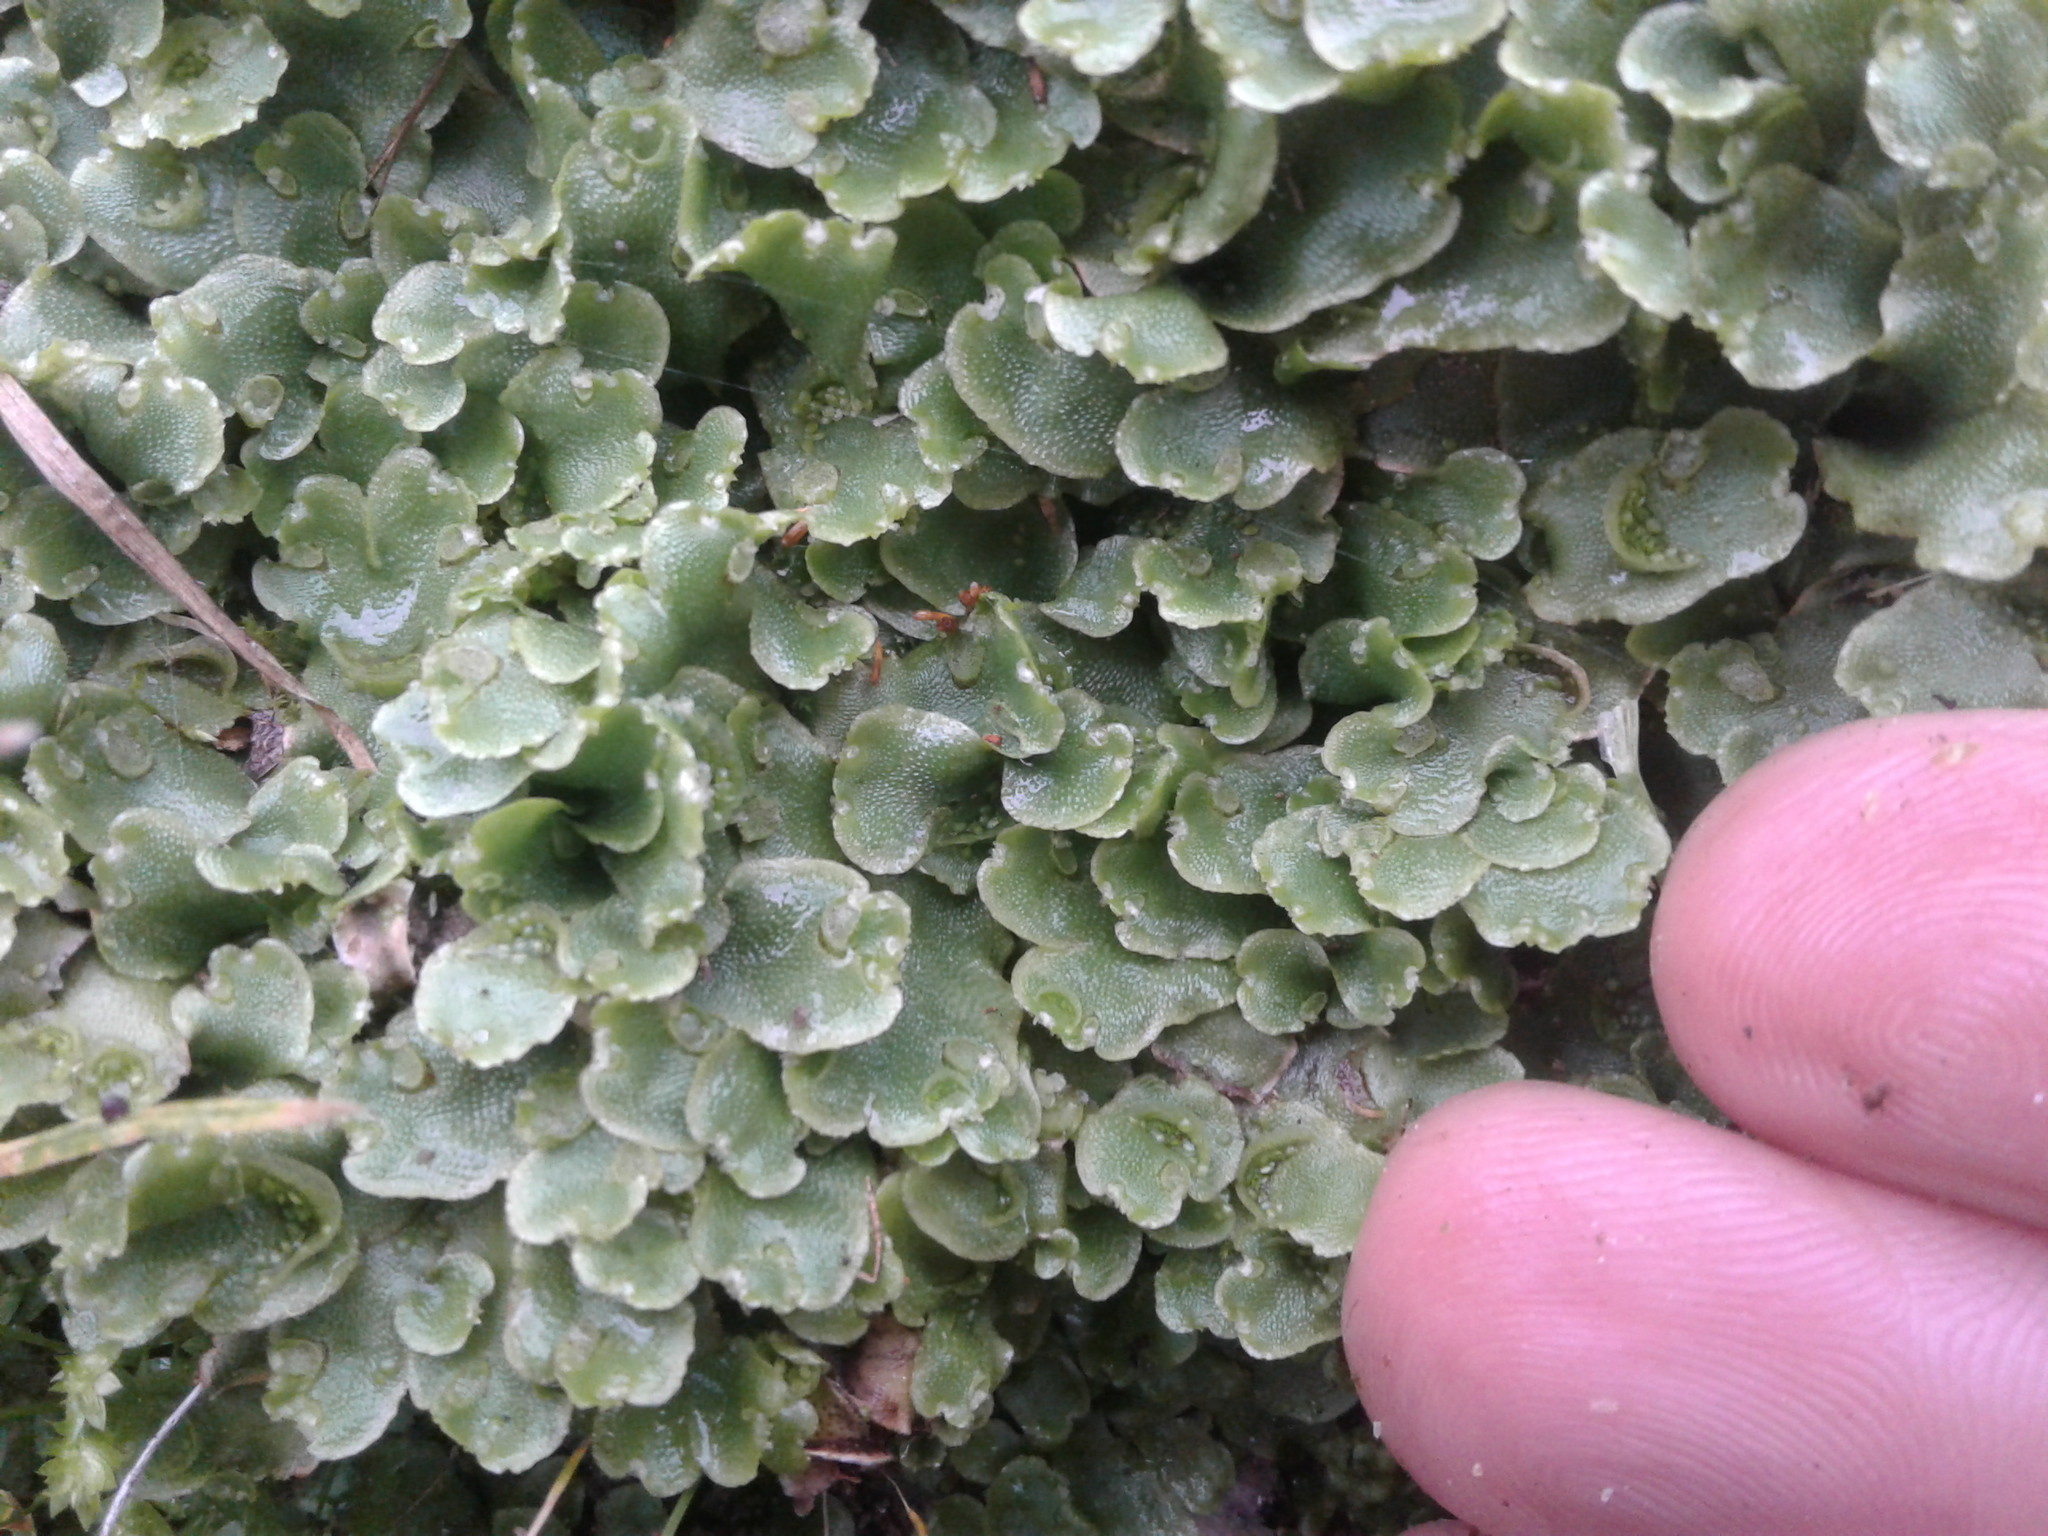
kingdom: Plantae
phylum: Marchantiophyta
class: Marchantiopsida
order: Lunulariales
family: Lunulariaceae
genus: Lunularia
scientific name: Lunularia cruciata
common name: Crescent-cup liverwort
